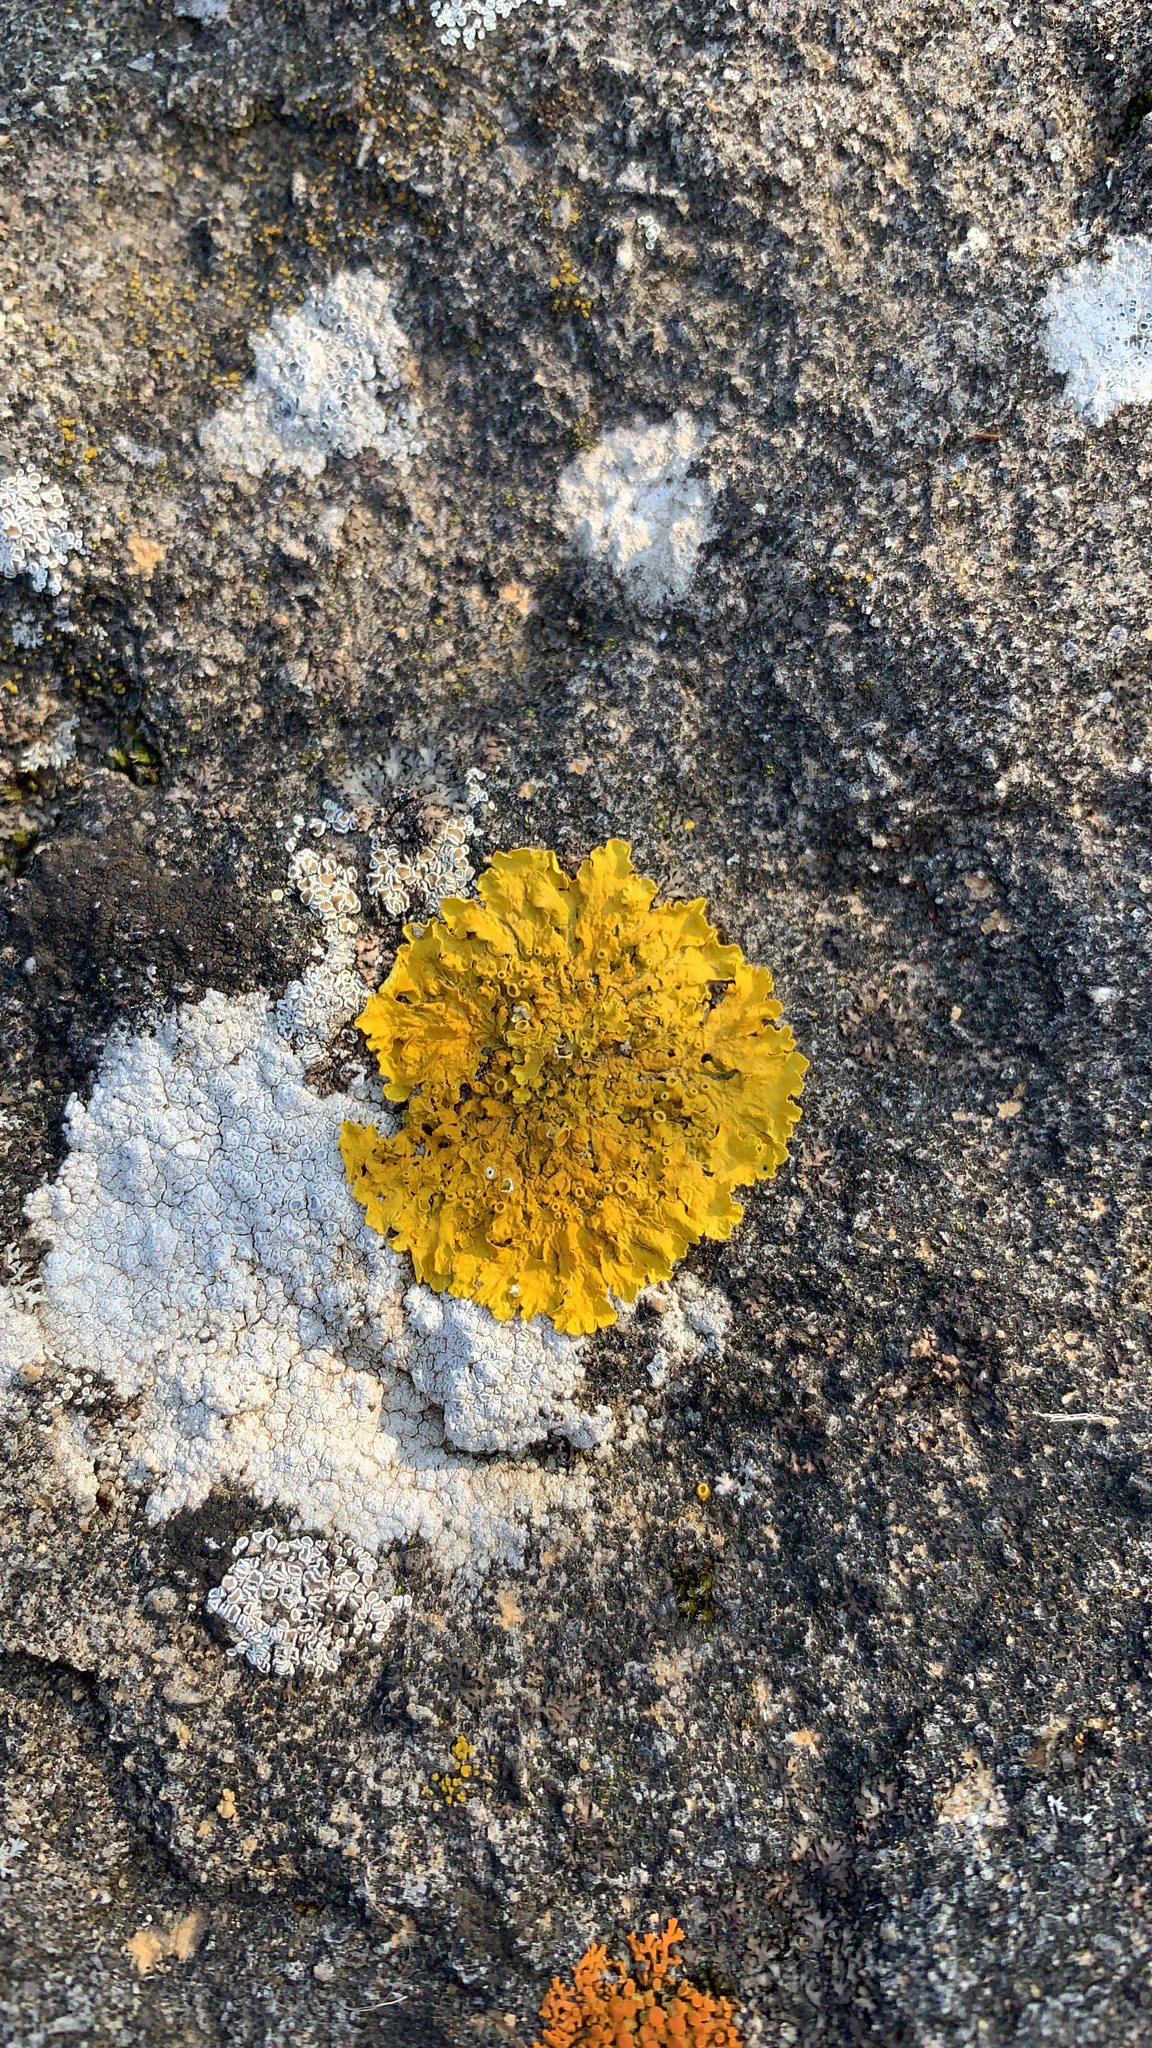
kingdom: Fungi
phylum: Ascomycota
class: Lecanoromycetes
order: Teloschistales
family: Teloschistaceae
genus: Xanthoria
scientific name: Xanthoria parietina
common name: Common orange lichen
